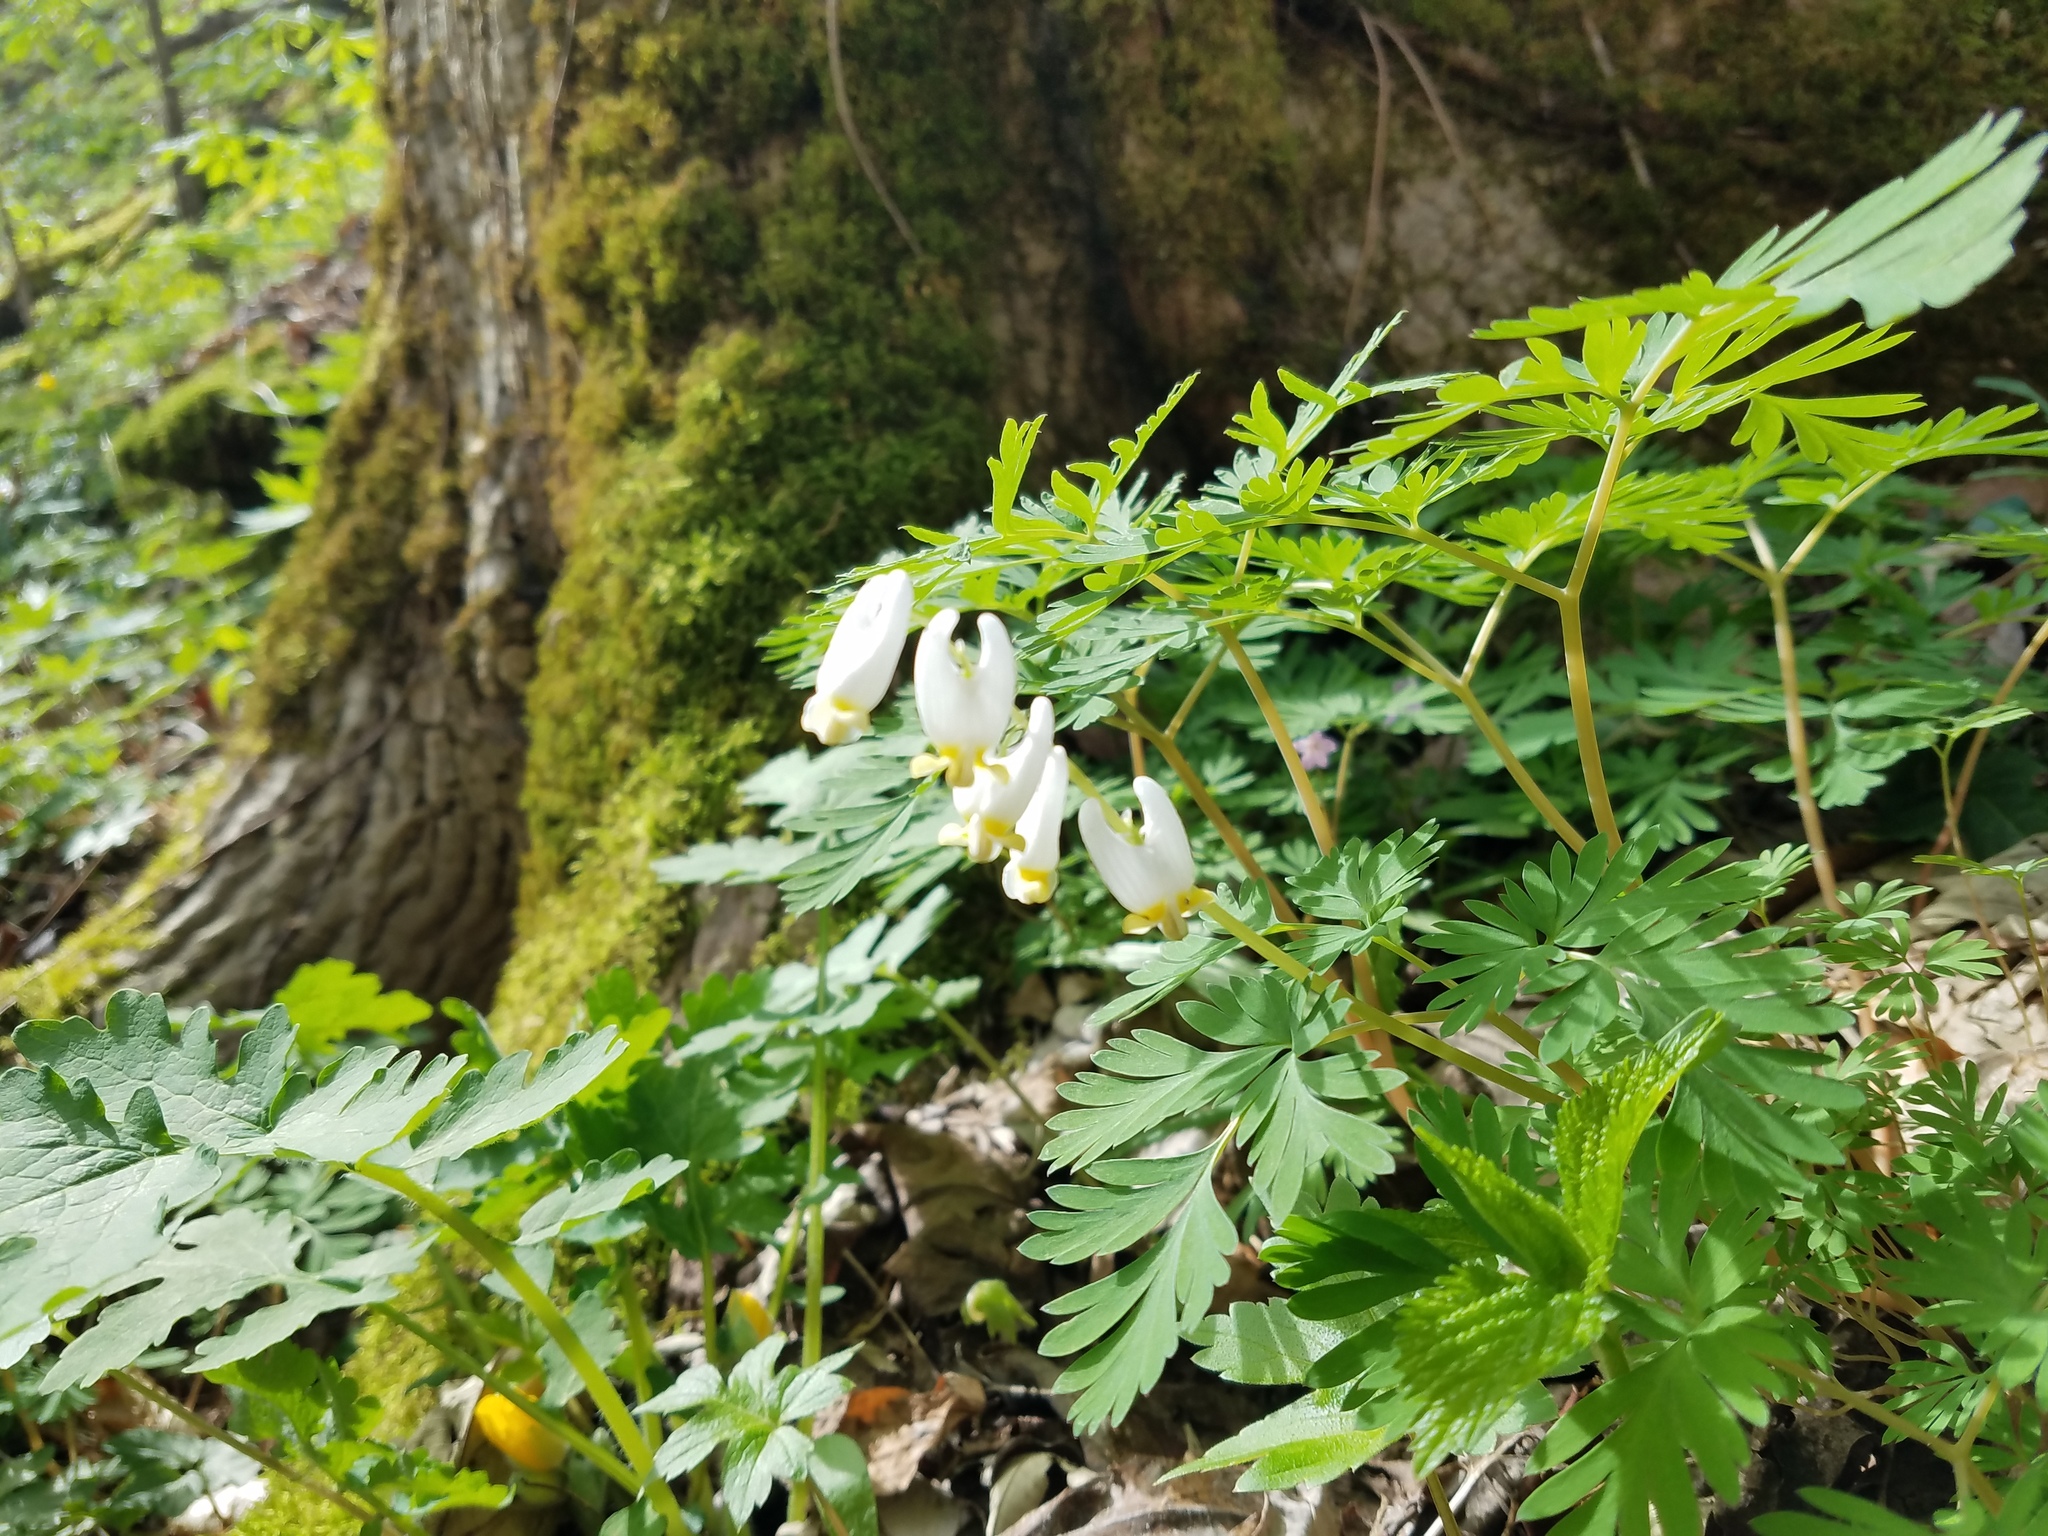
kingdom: Plantae
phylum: Tracheophyta
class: Magnoliopsida
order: Ranunculales
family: Papaveraceae
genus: Dicentra
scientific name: Dicentra cucullaria
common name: Dutchman's breeches
